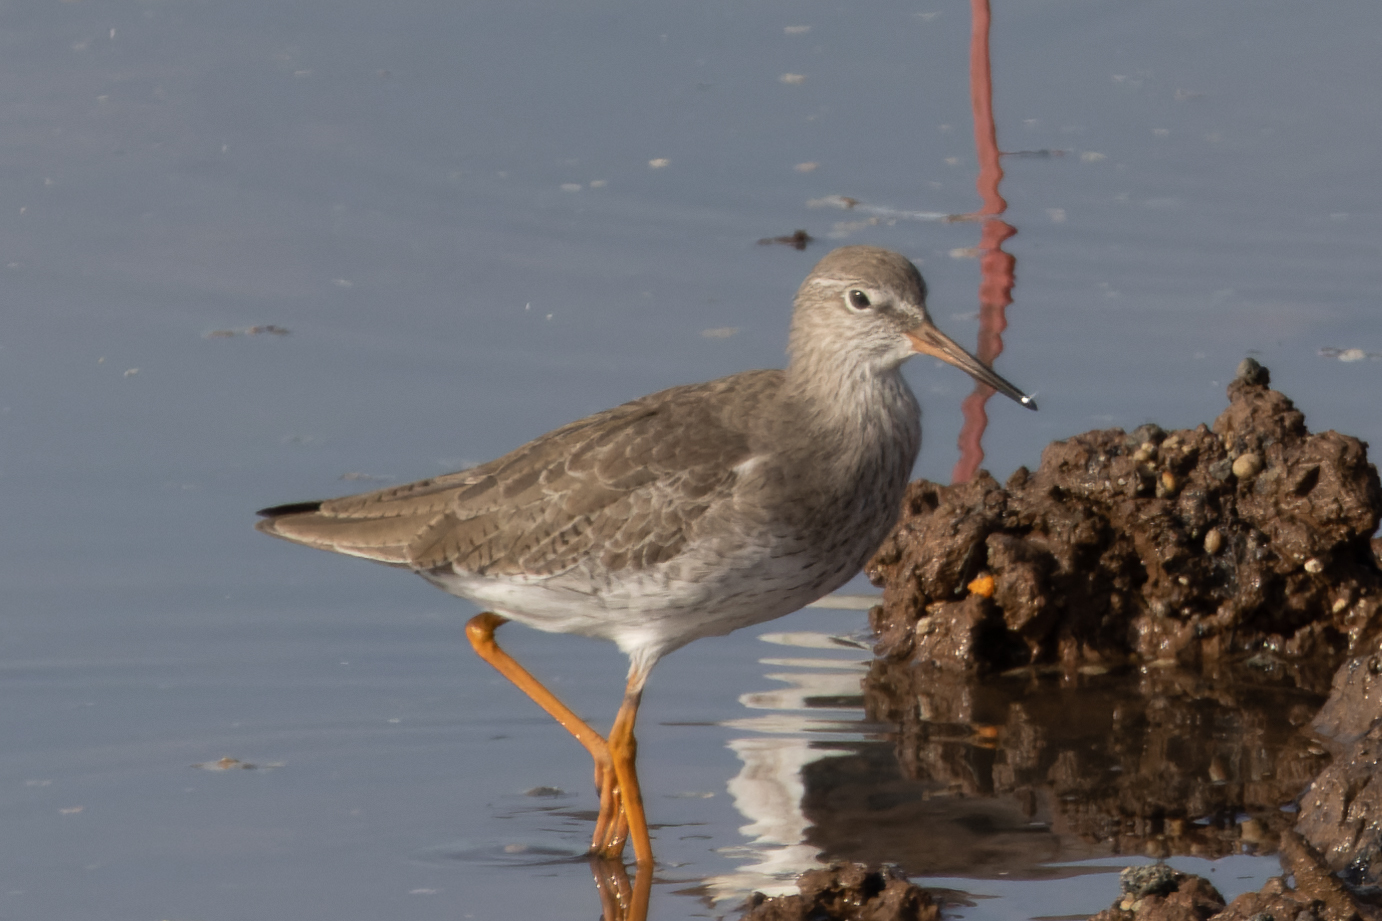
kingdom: Animalia
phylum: Chordata
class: Aves
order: Charadriiformes
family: Scolopacidae
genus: Tringa
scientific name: Tringa totanus
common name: Common redshank
